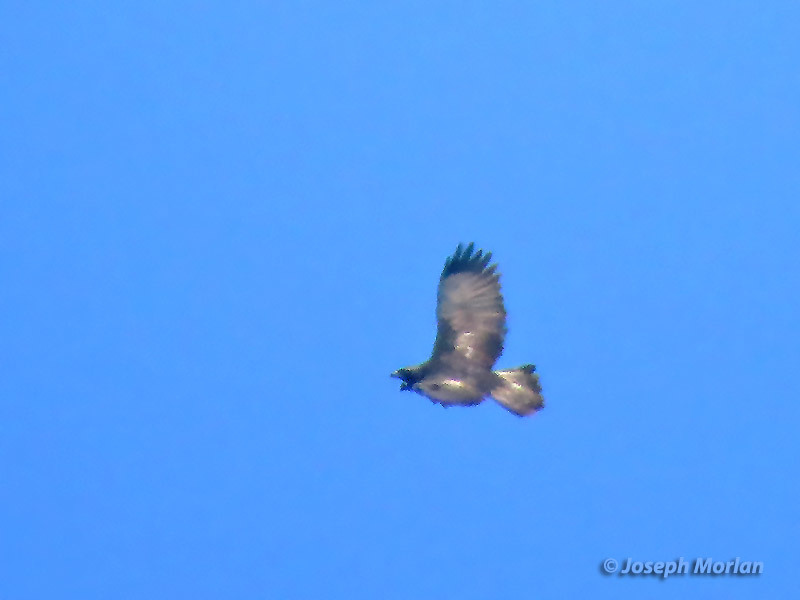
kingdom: Animalia
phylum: Chordata
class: Aves
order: Accipitriformes
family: Accipitridae
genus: Aquila
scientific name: Aquila chrysaetos
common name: Golden eagle
